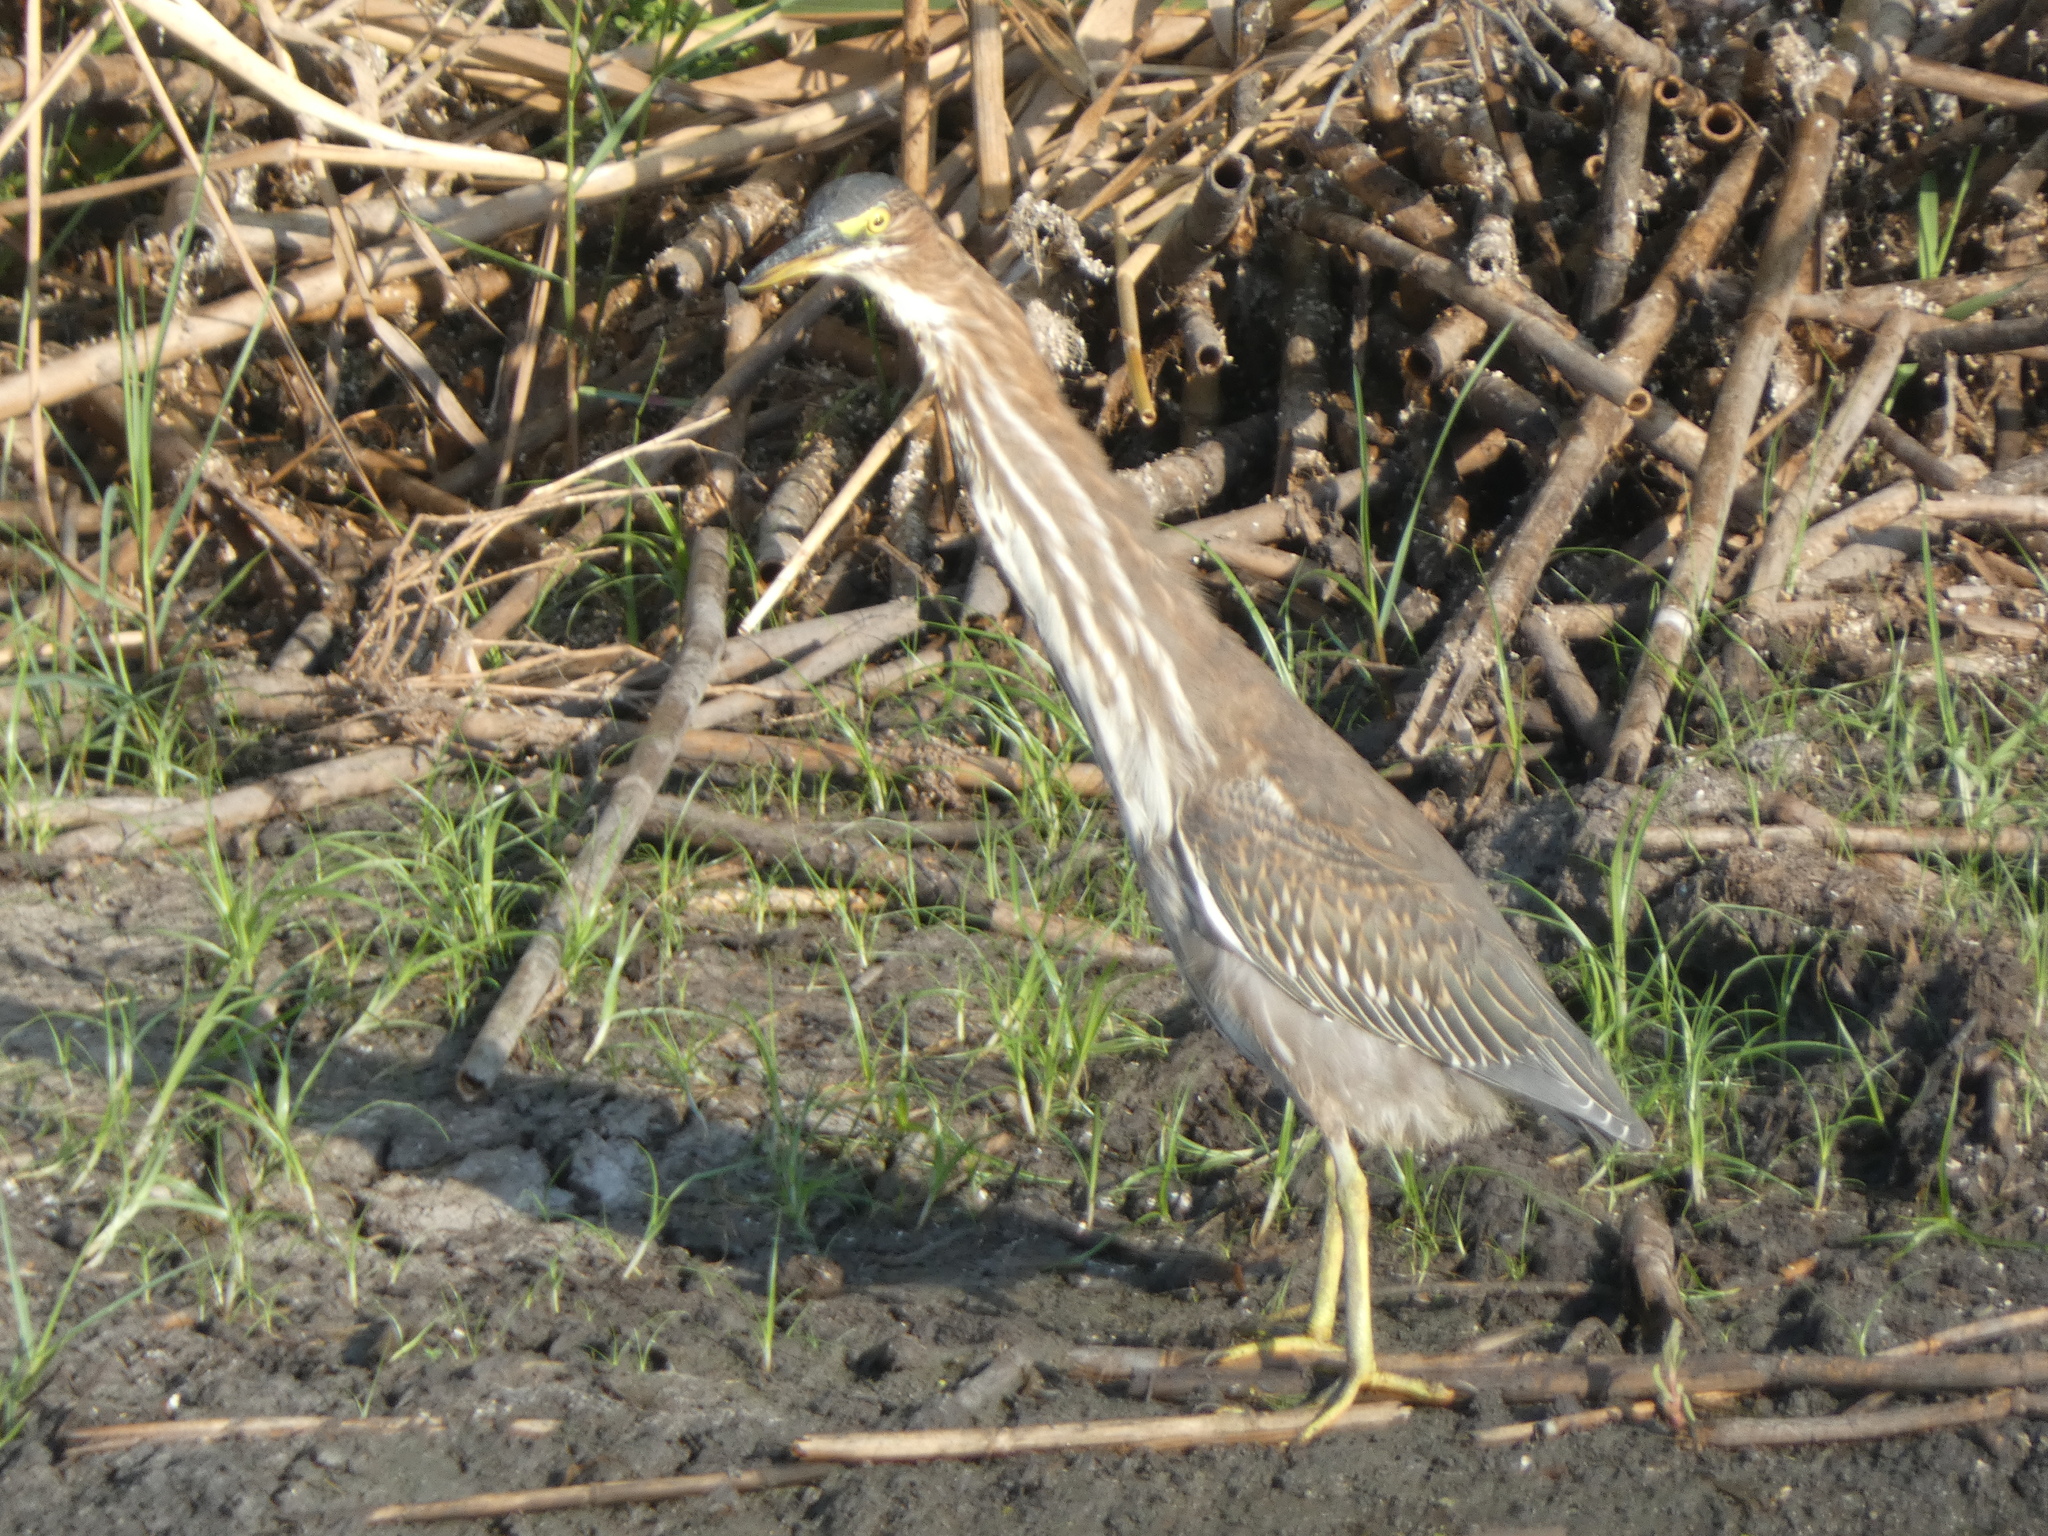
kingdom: Animalia
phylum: Chordata
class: Aves
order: Pelecaniformes
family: Ardeidae
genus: Butorides
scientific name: Butorides virescens
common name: Green heron
